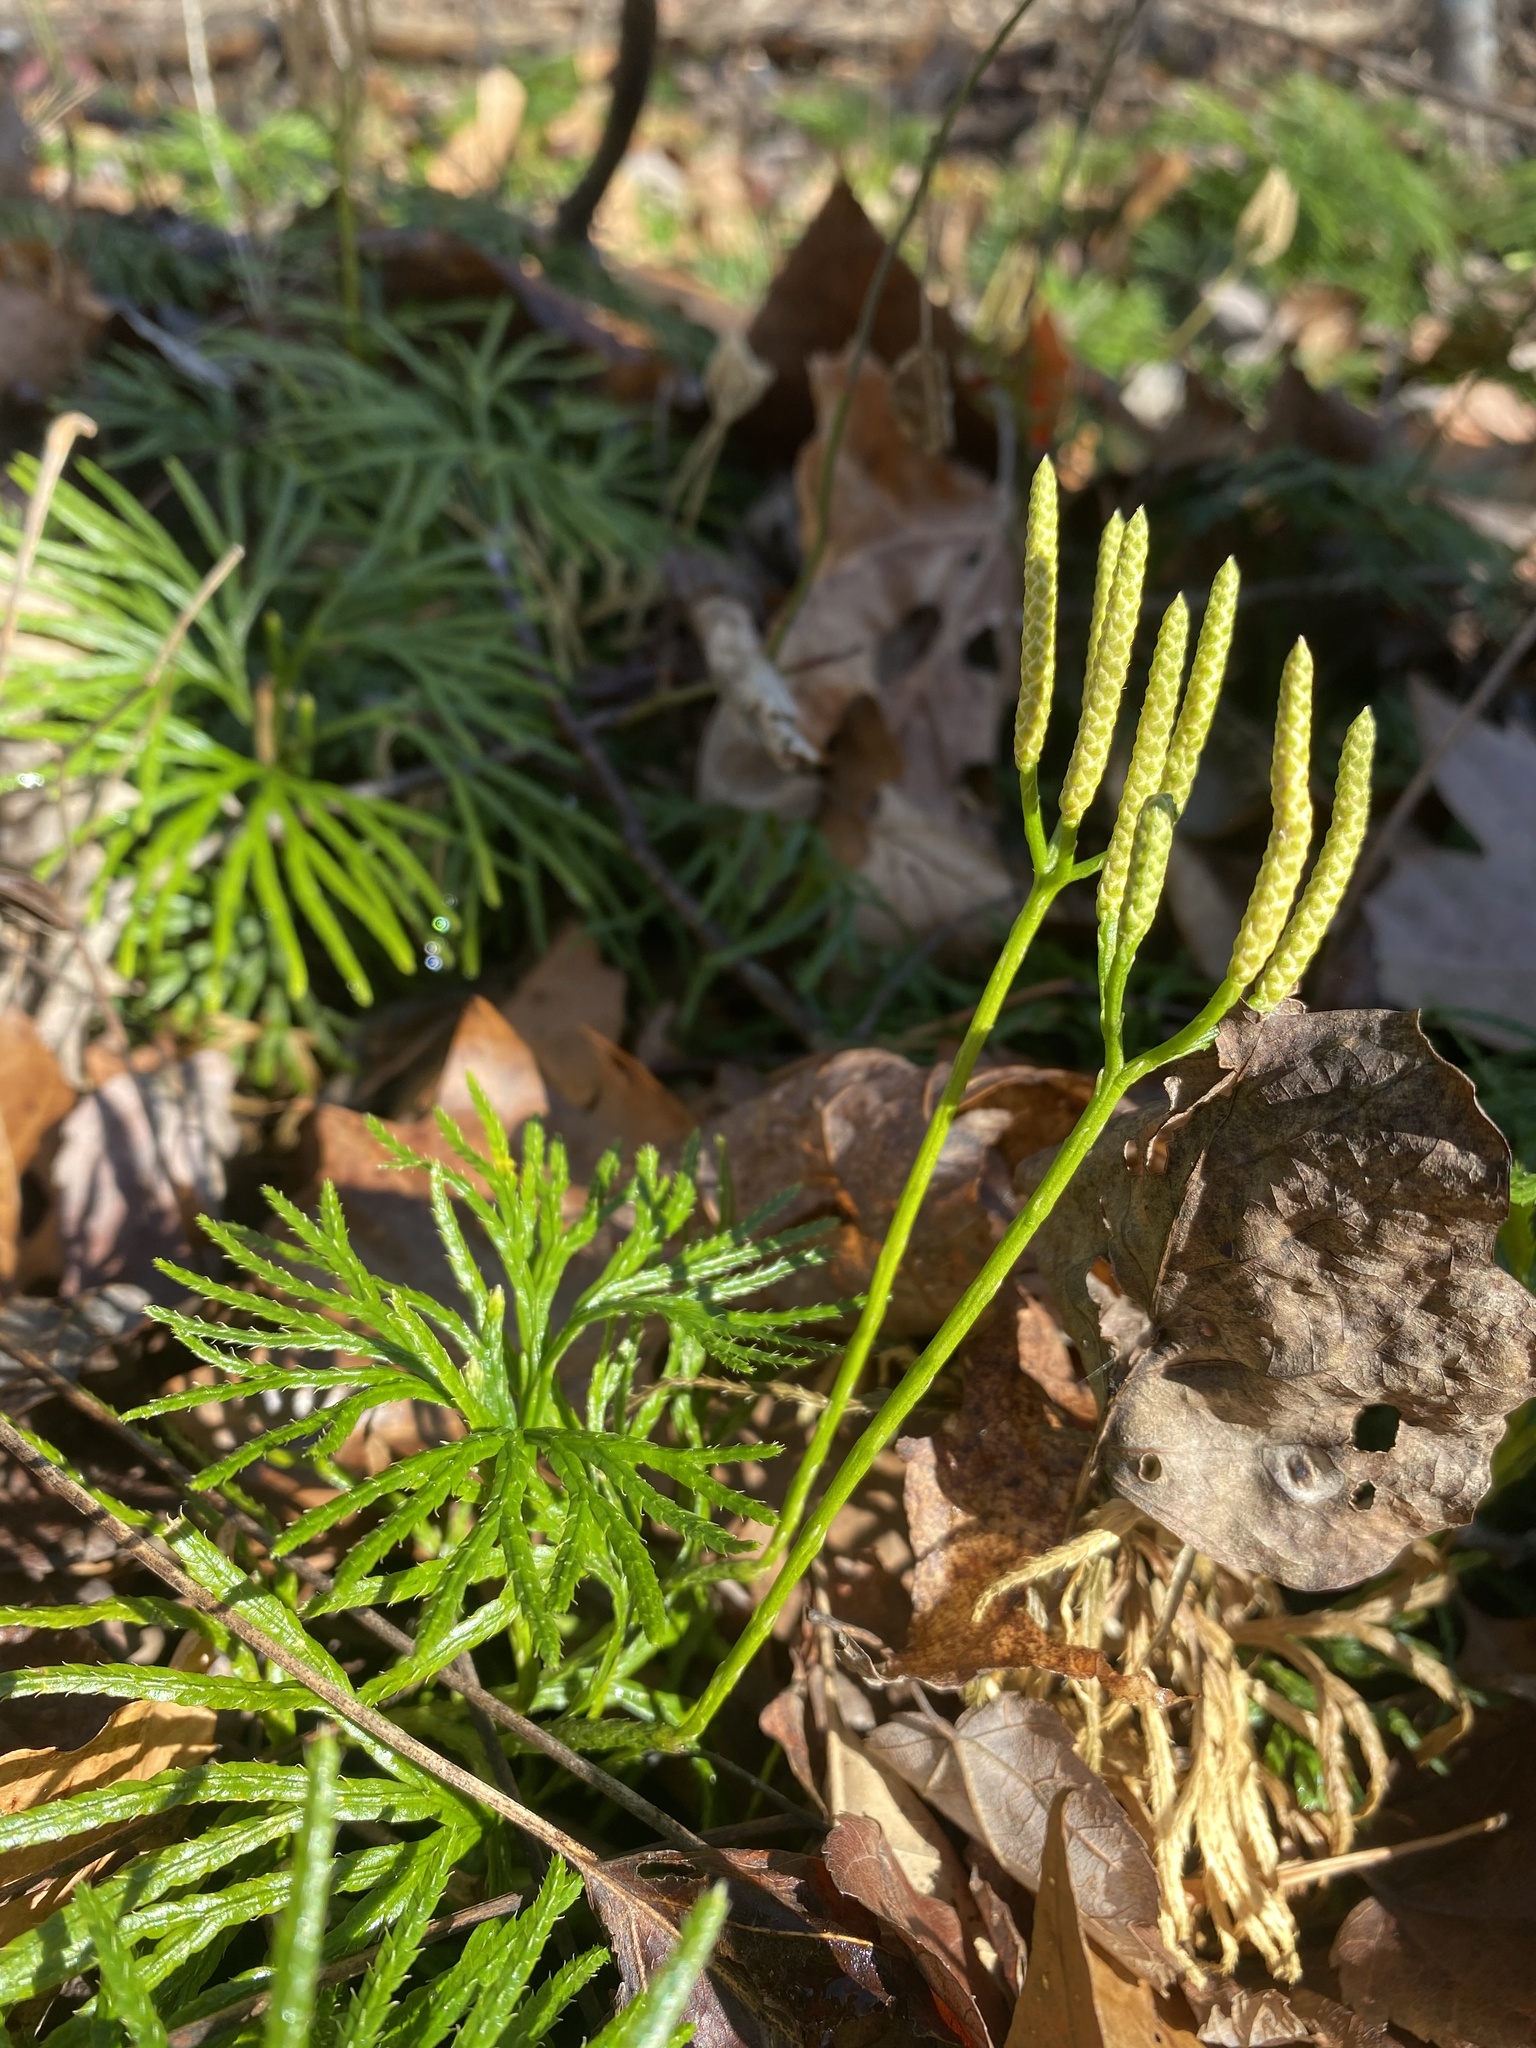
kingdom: Plantae
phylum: Tracheophyta
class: Lycopodiopsida
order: Lycopodiales
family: Lycopodiaceae
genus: Diphasiastrum
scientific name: Diphasiastrum digitatum
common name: Southern running-pine
